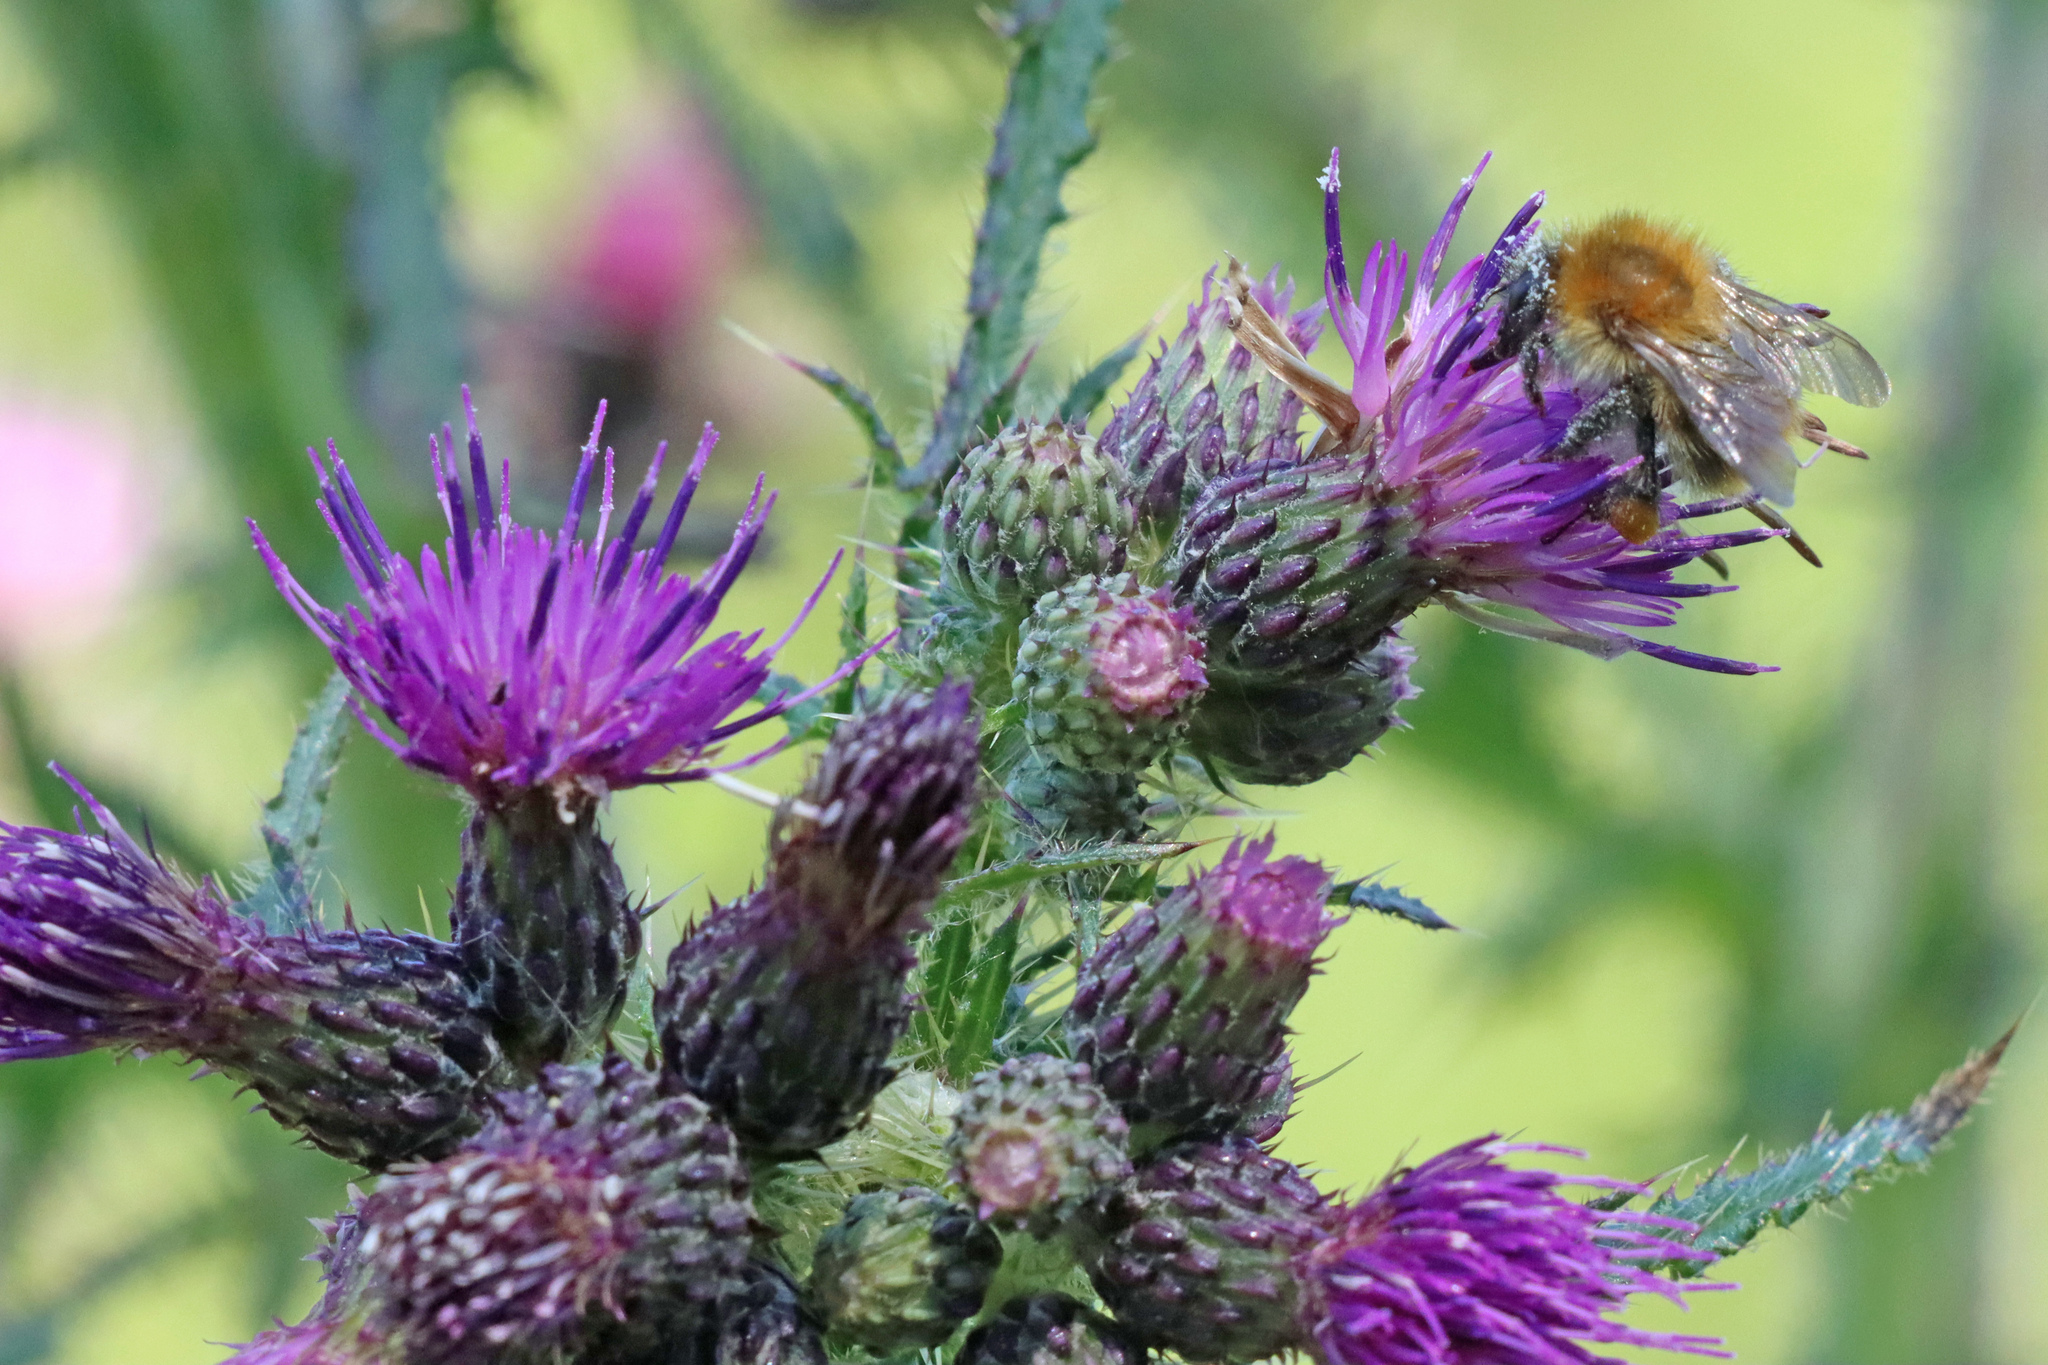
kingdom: Animalia
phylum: Arthropoda
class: Insecta
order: Hymenoptera
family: Apidae
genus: Bombus
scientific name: Bombus pascuorum
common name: Common carder bee
